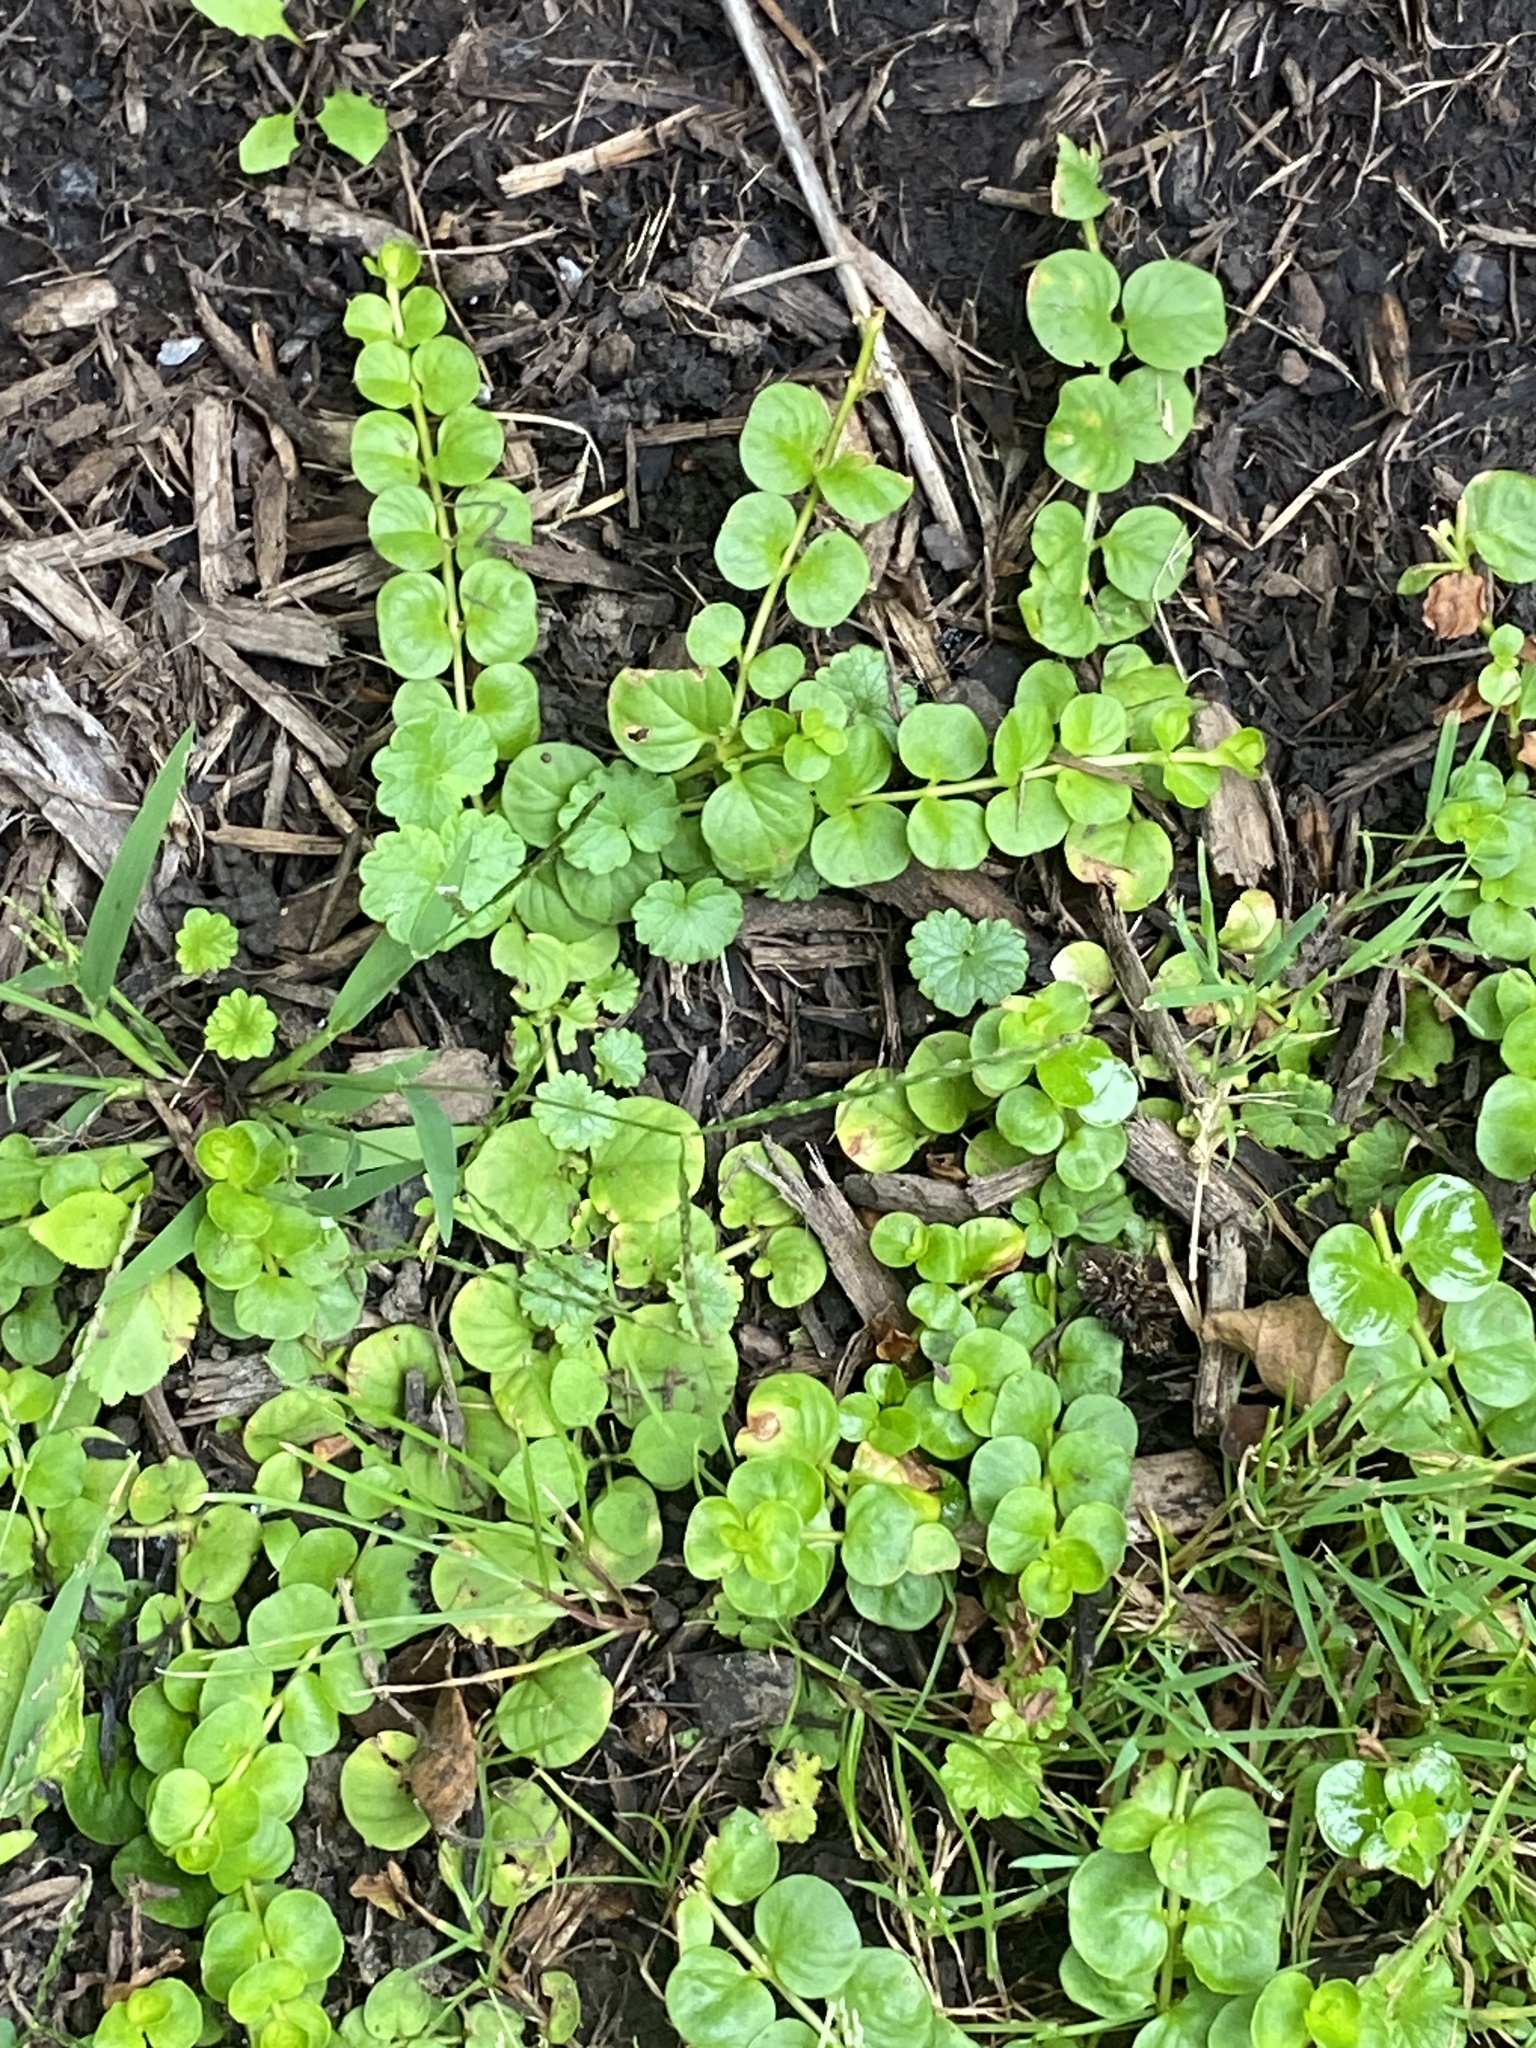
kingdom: Plantae
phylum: Tracheophyta
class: Magnoliopsida
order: Ericales
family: Primulaceae
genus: Lysimachia
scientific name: Lysimachia nummularia
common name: Moneywort
